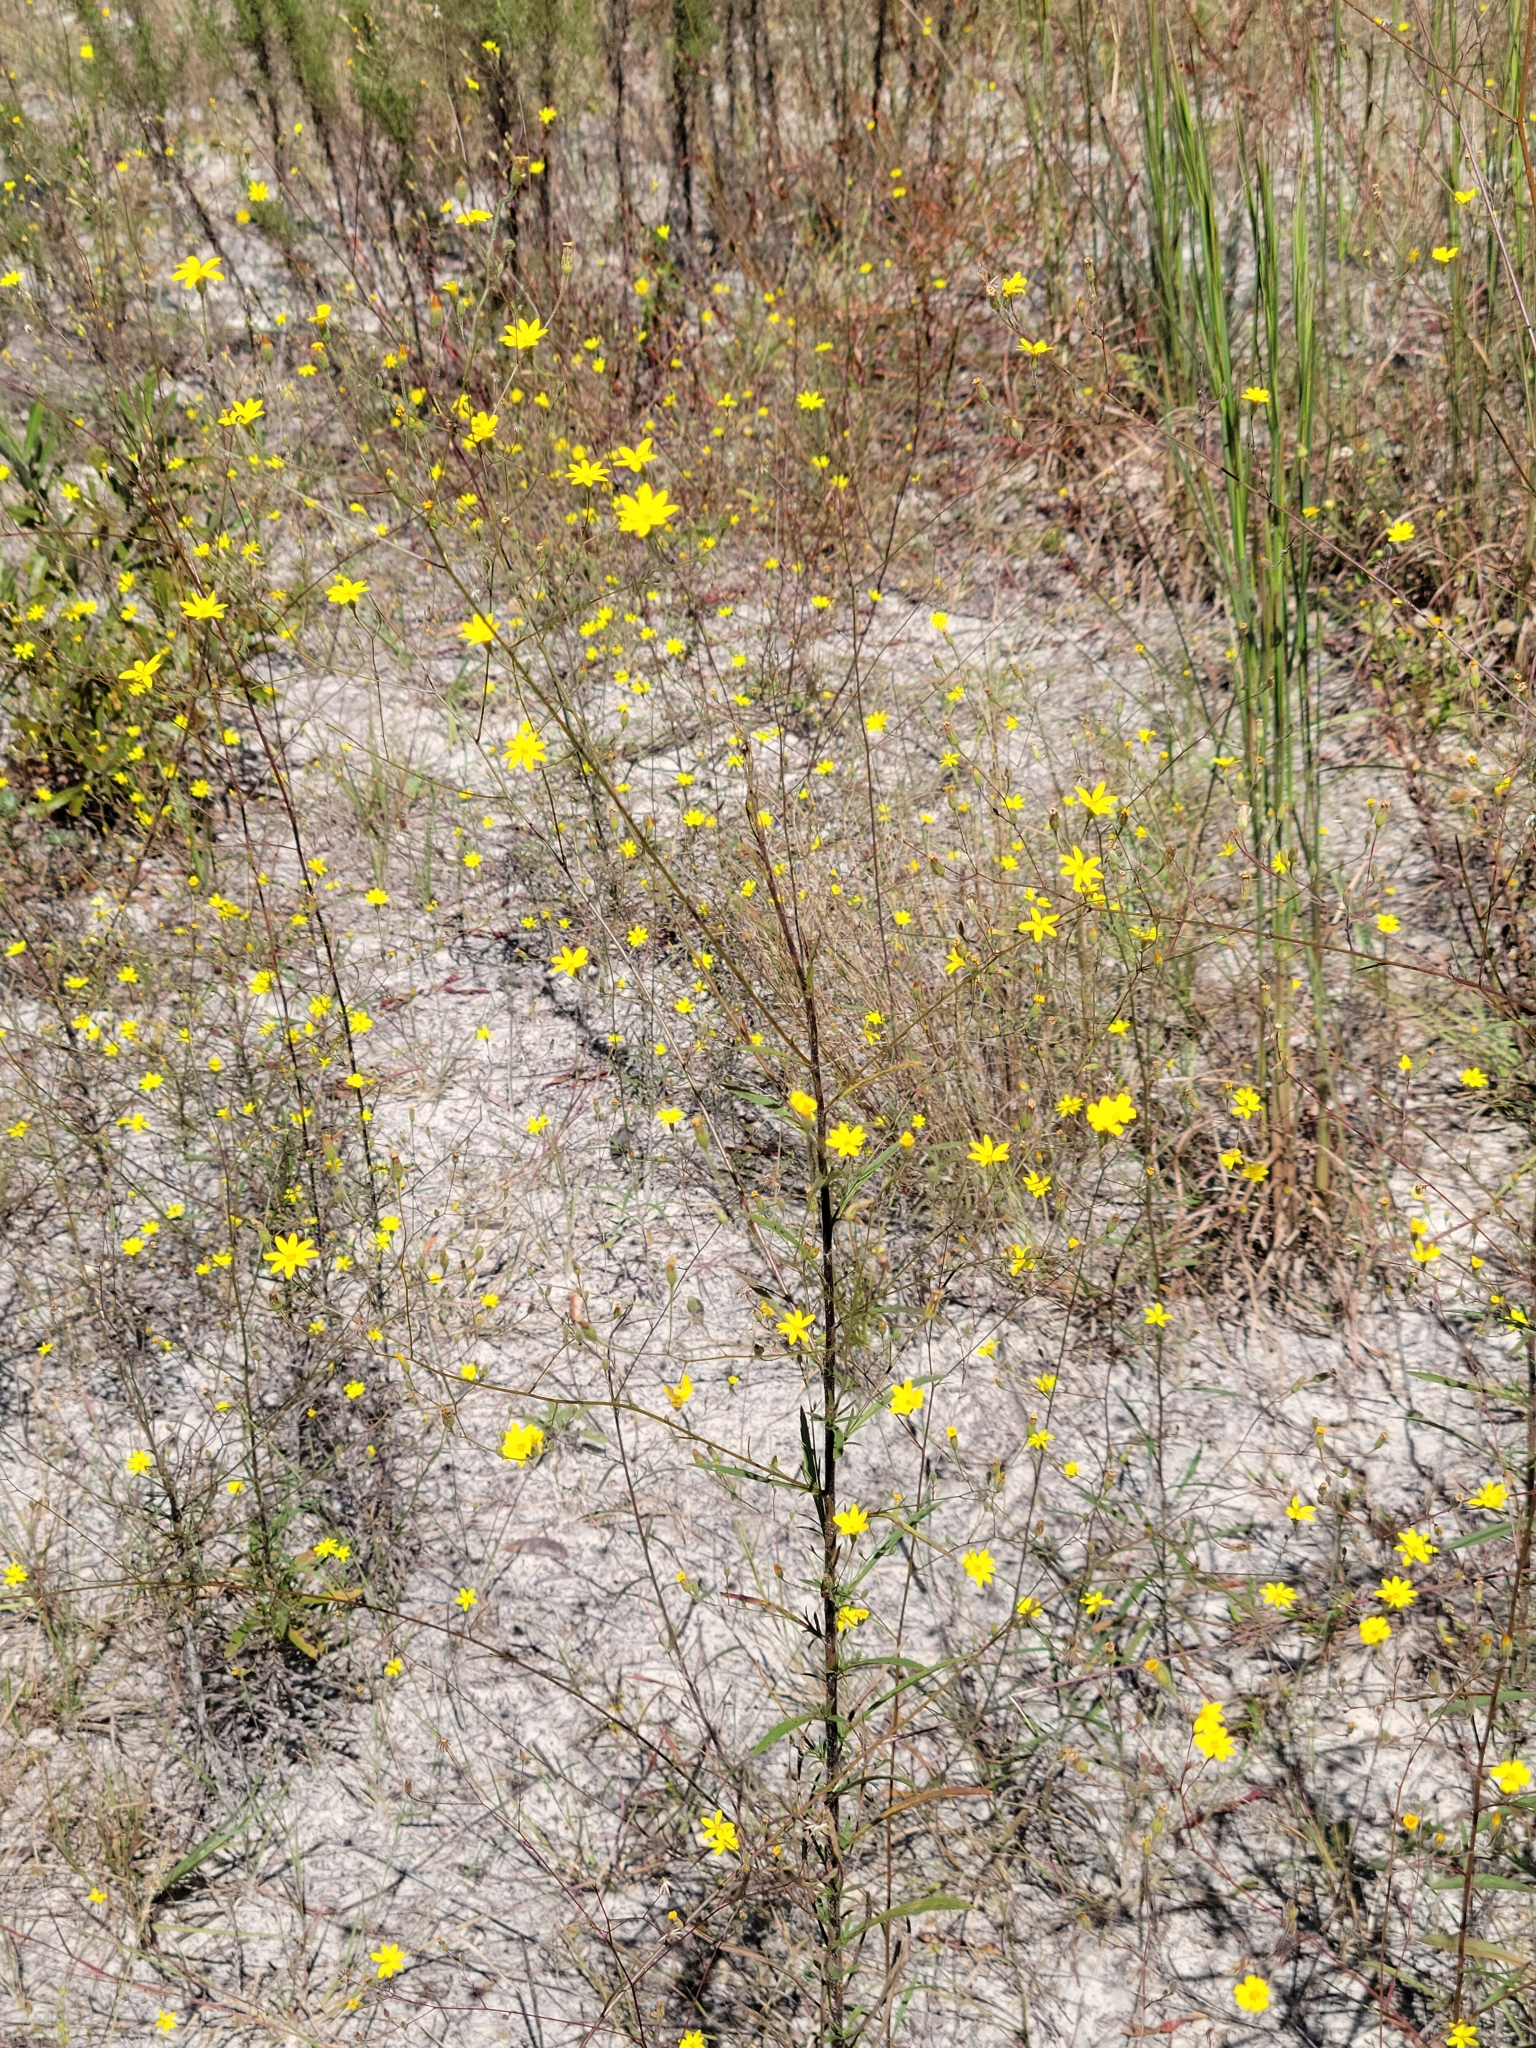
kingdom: Plantae
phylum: Tracheophyta
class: Magnoliopsida
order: Asterales
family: Asteraceae
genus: Croptilon
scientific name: Croptilon divaricatum
